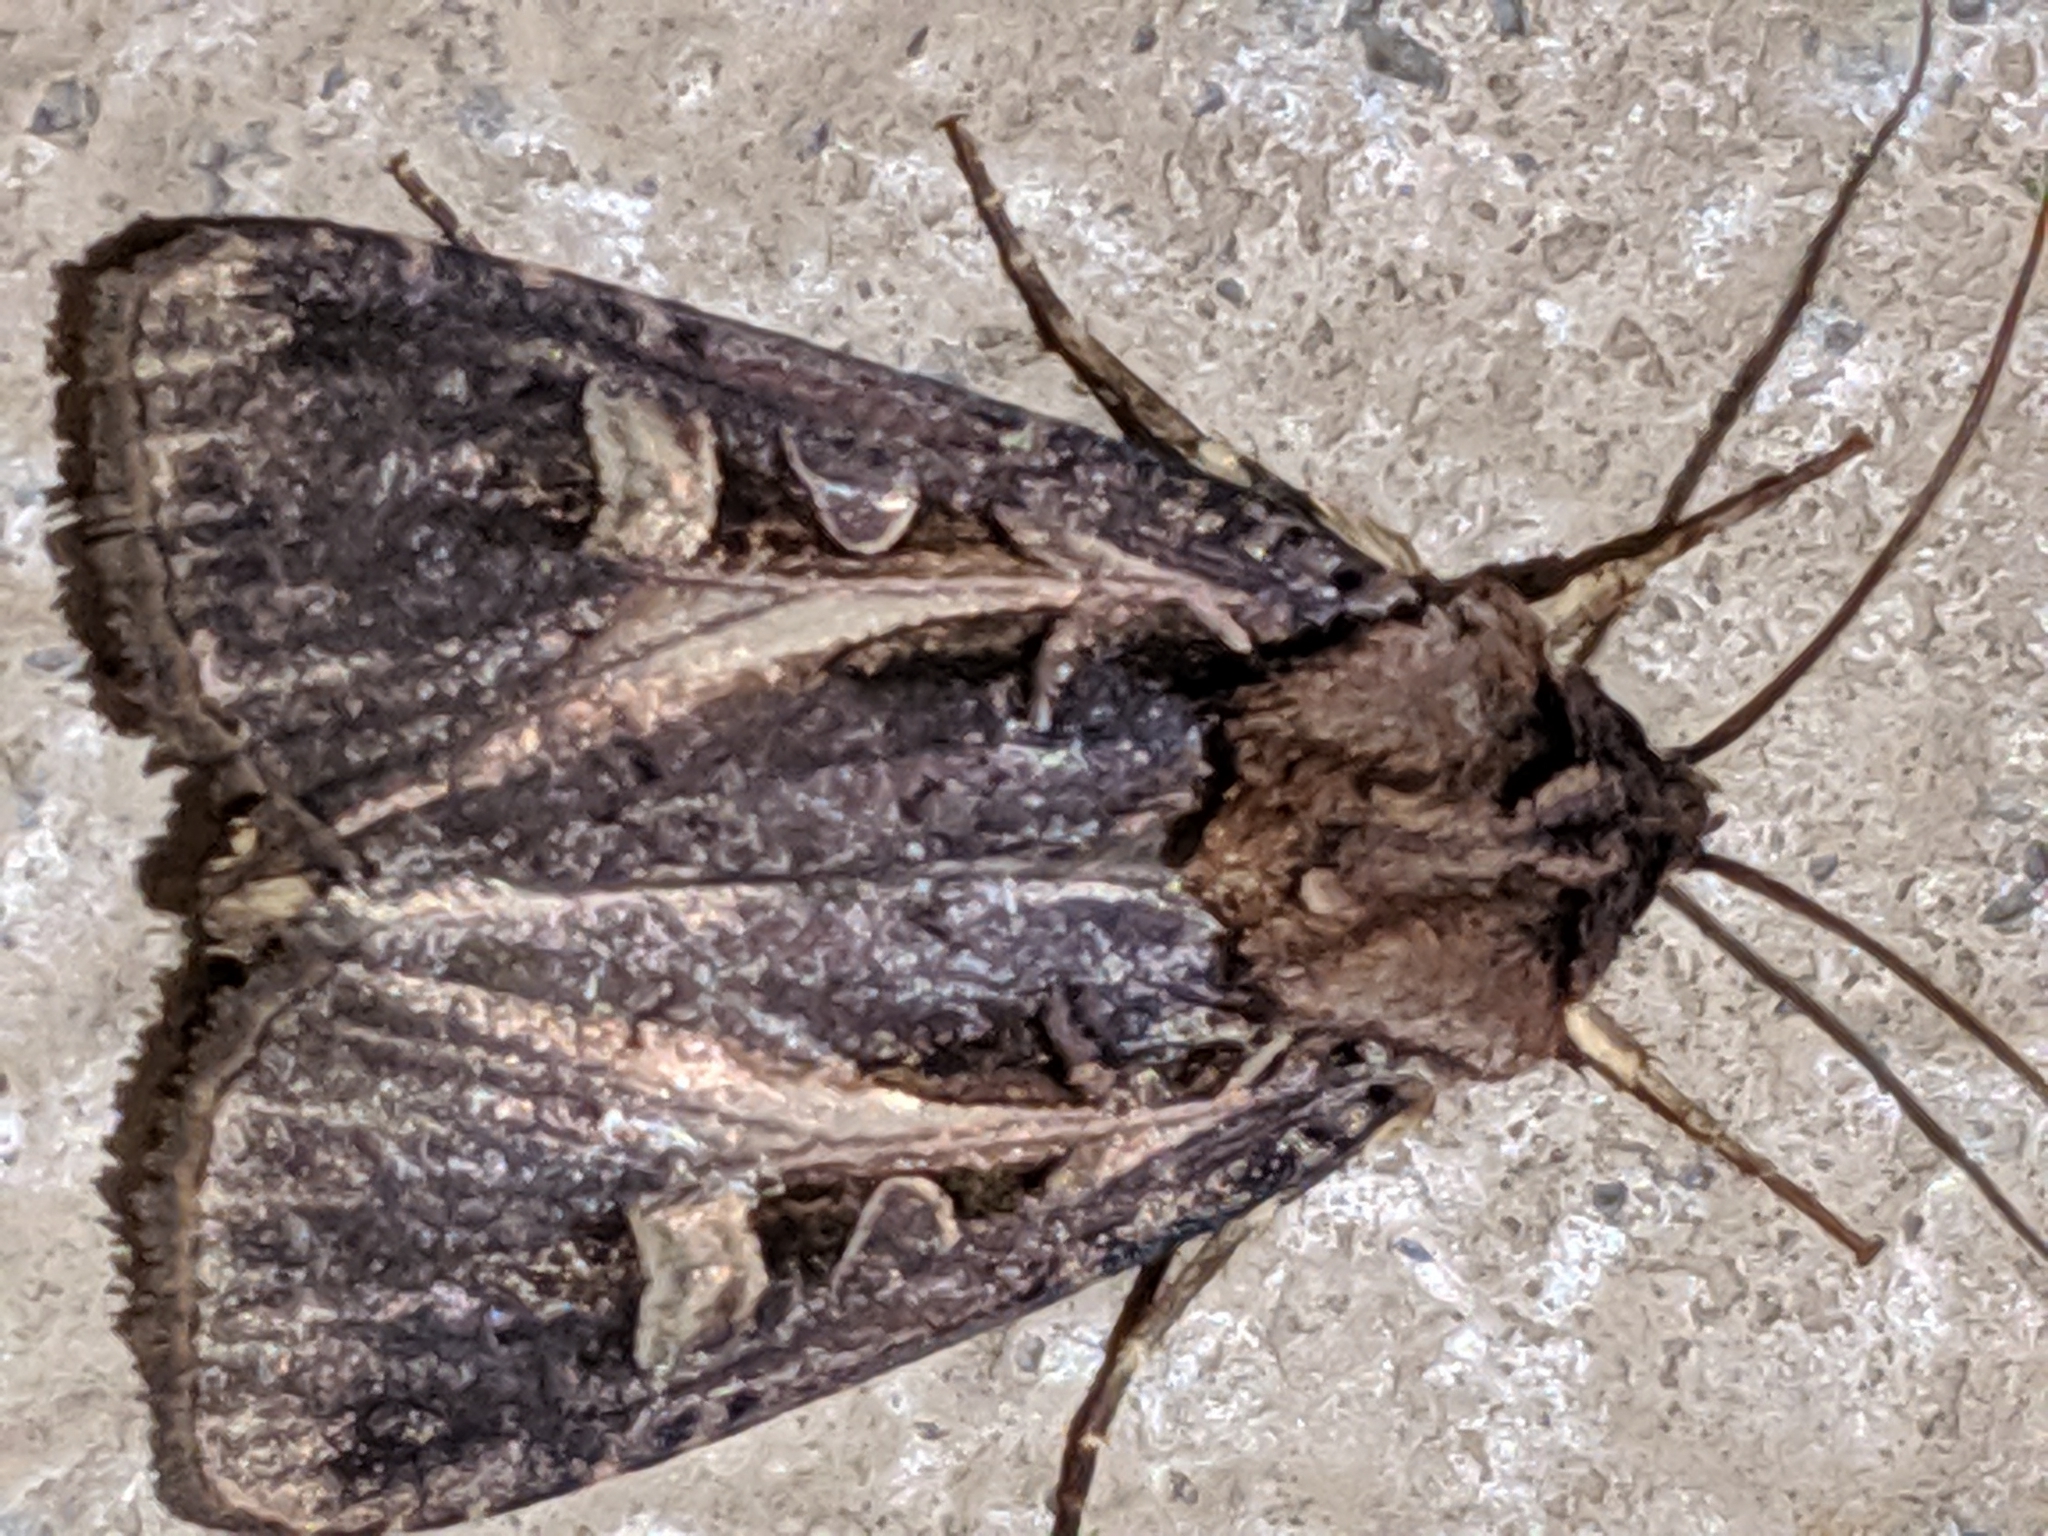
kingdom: Animalia
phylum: Arthropoda
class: Insecta
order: Lepidoptera
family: Noctuidae
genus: Feltia
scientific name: Feltia herilis
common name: Master's dart
